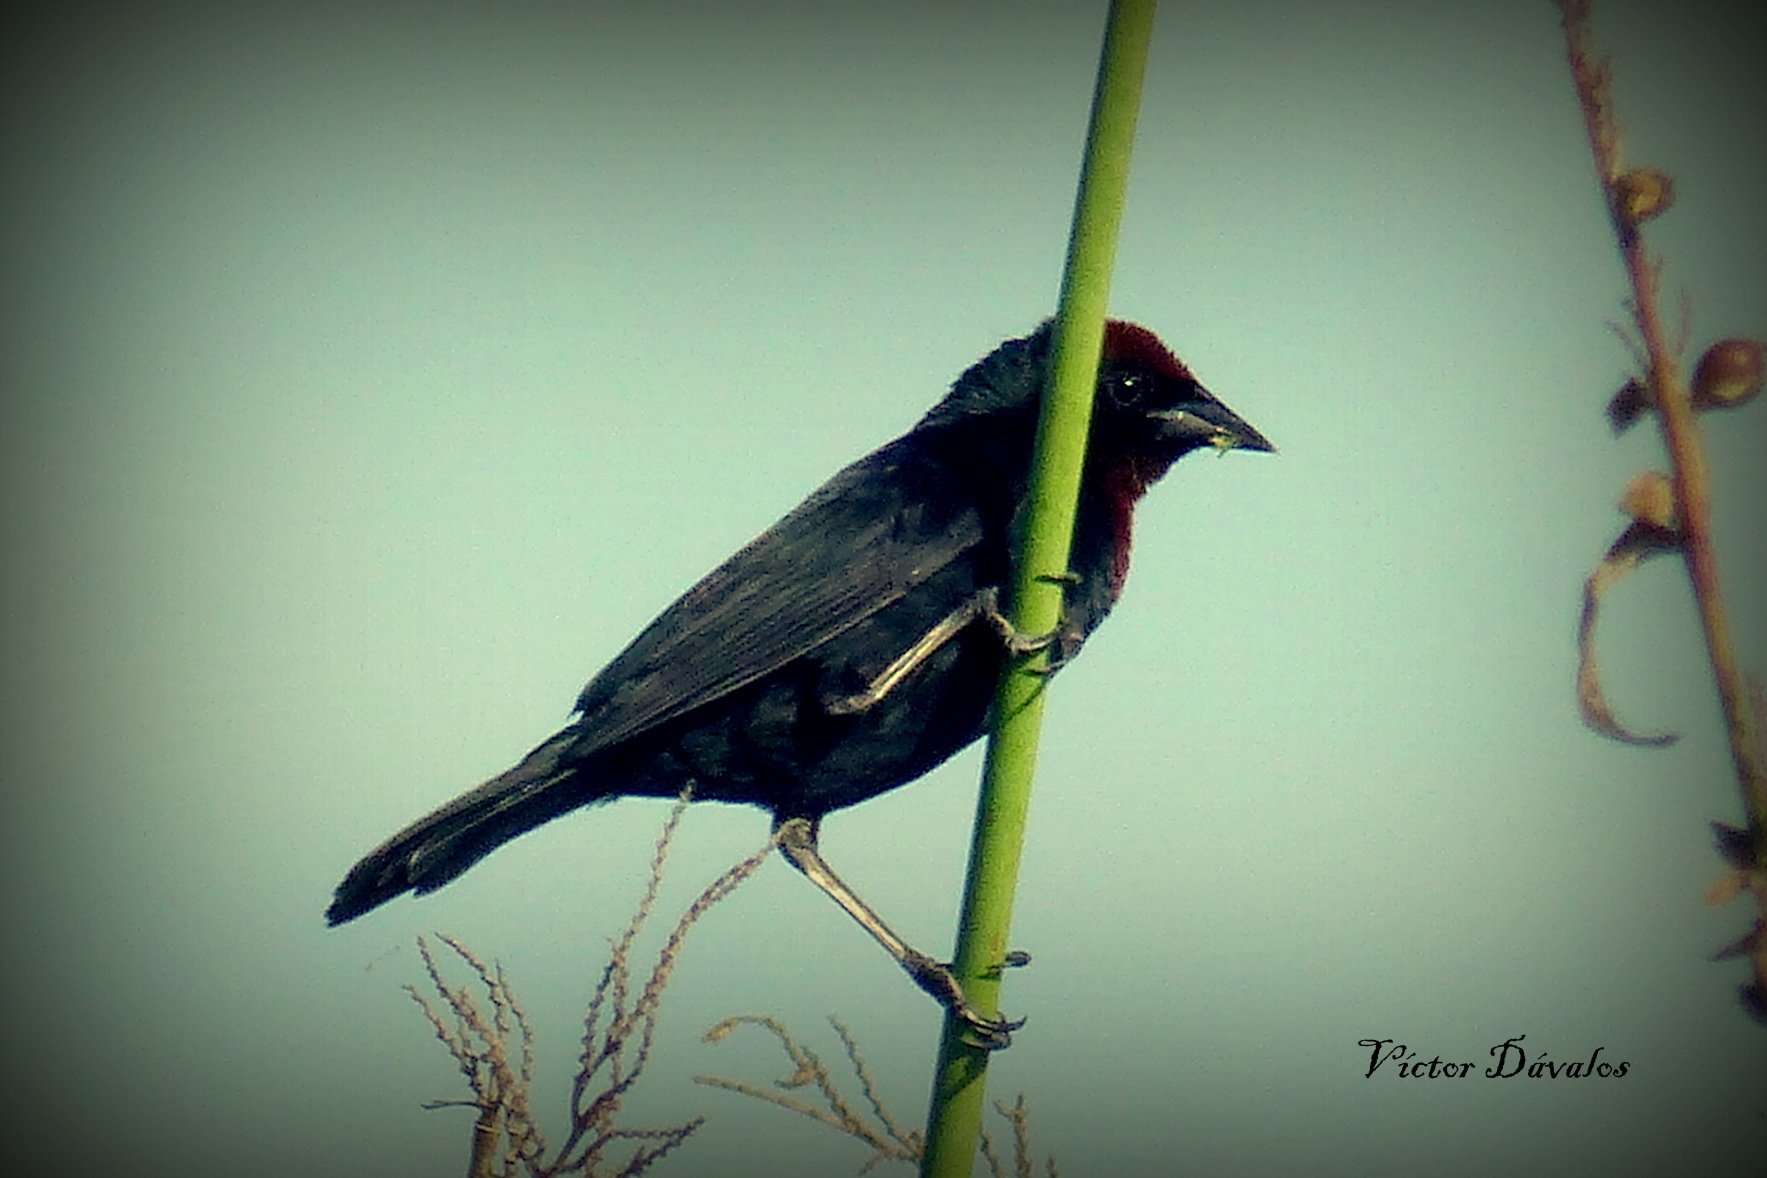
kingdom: Animalia
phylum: Chordata
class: Aves
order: Passeriformes
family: Icteridae
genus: Chrysomus
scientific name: Chrysomus ruficapillus
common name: Chestnut-capped blackbird
